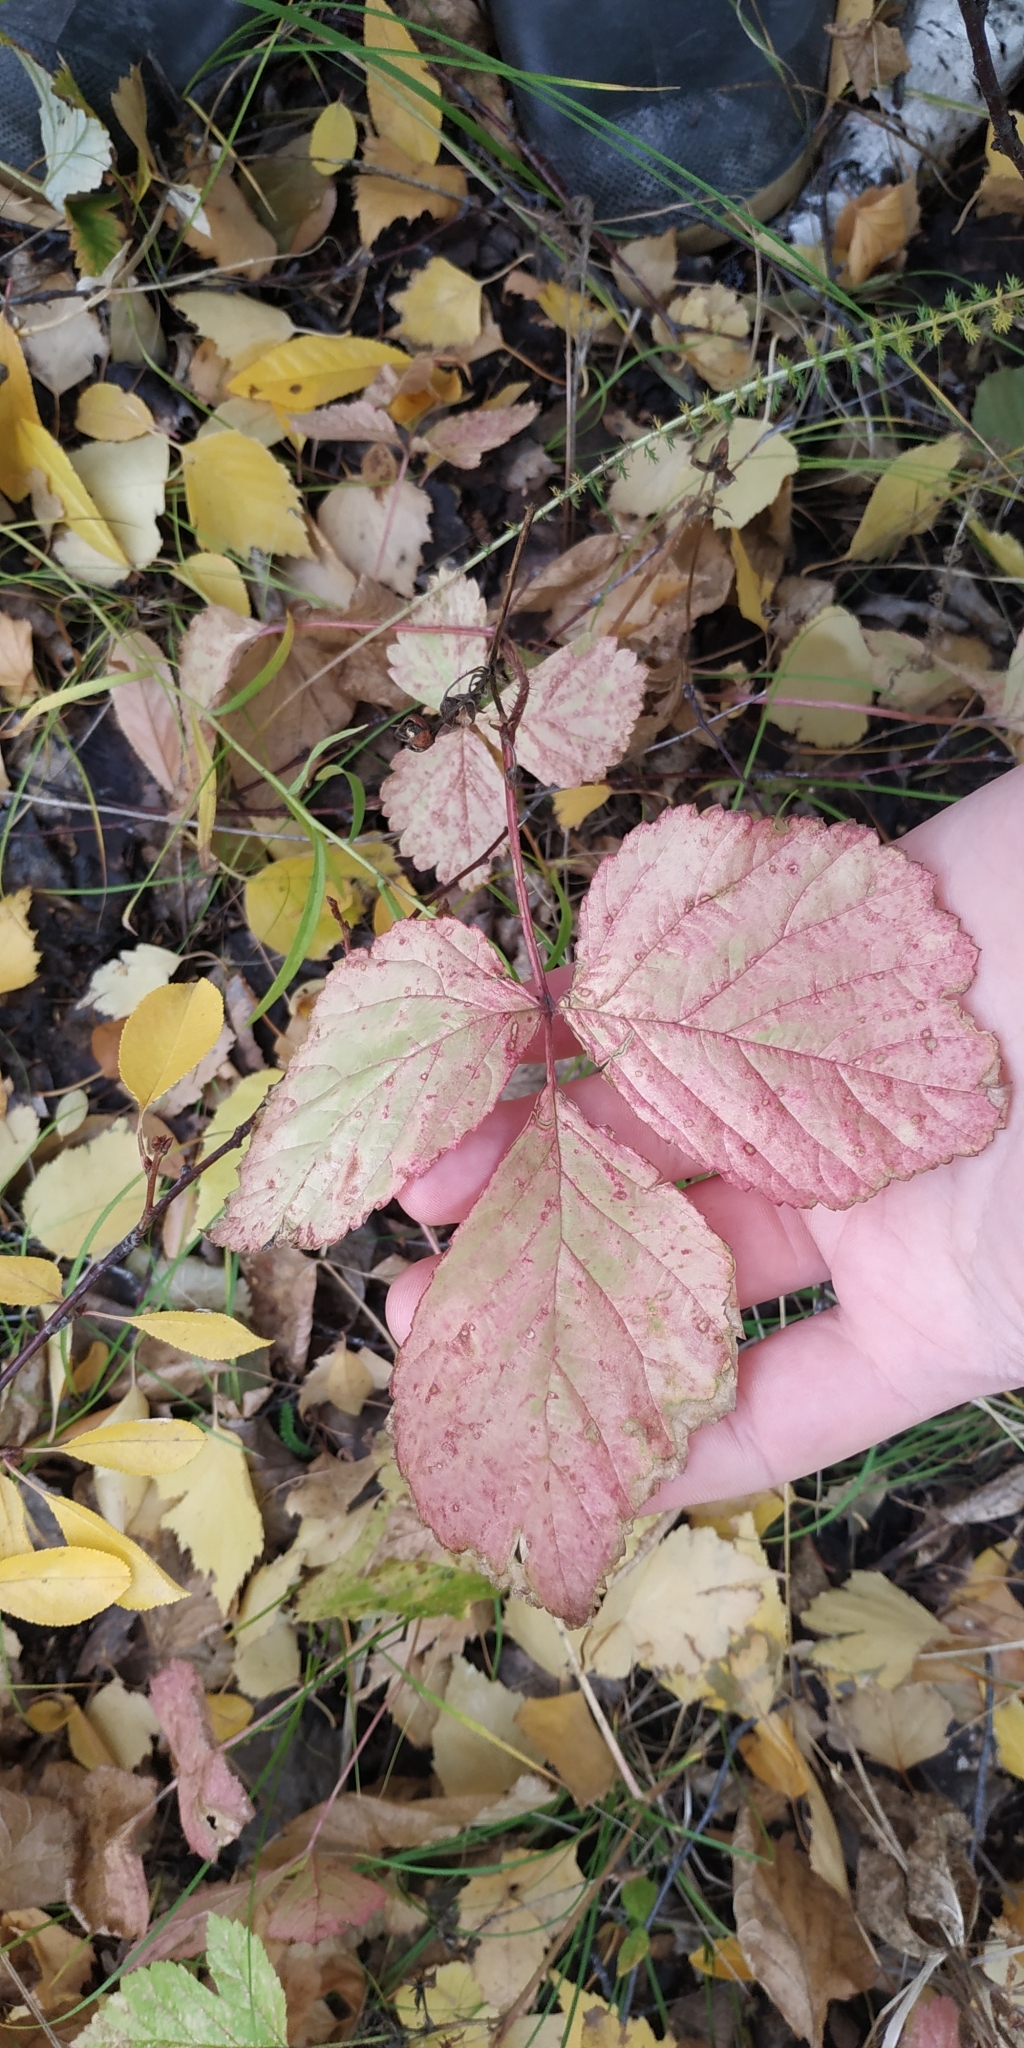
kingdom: Plantae
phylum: Tracheophyta
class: Magnoliopsida
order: Rosales
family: Rosaceae
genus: Rubus
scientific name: Rubus saxatilis
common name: Stone bramble
